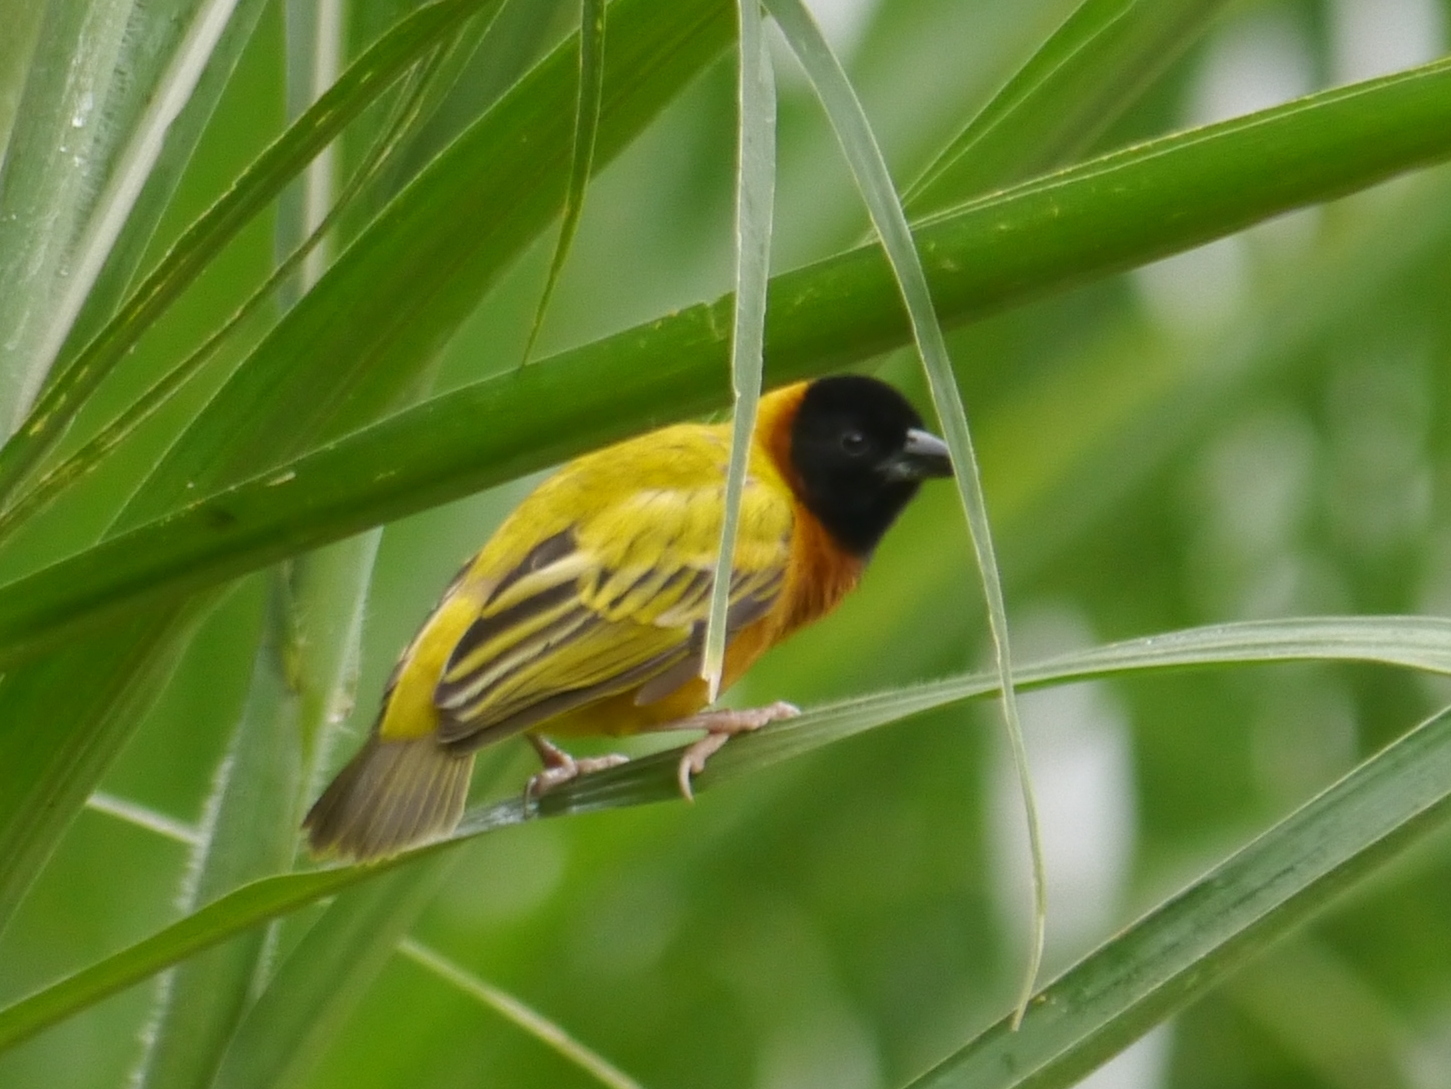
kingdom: Animalia
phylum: Chordata
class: Aves
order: Passeriformes
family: Ploceidae
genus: Ploceus
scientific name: Ploceus melanocephalus
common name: Black-headed weaver
